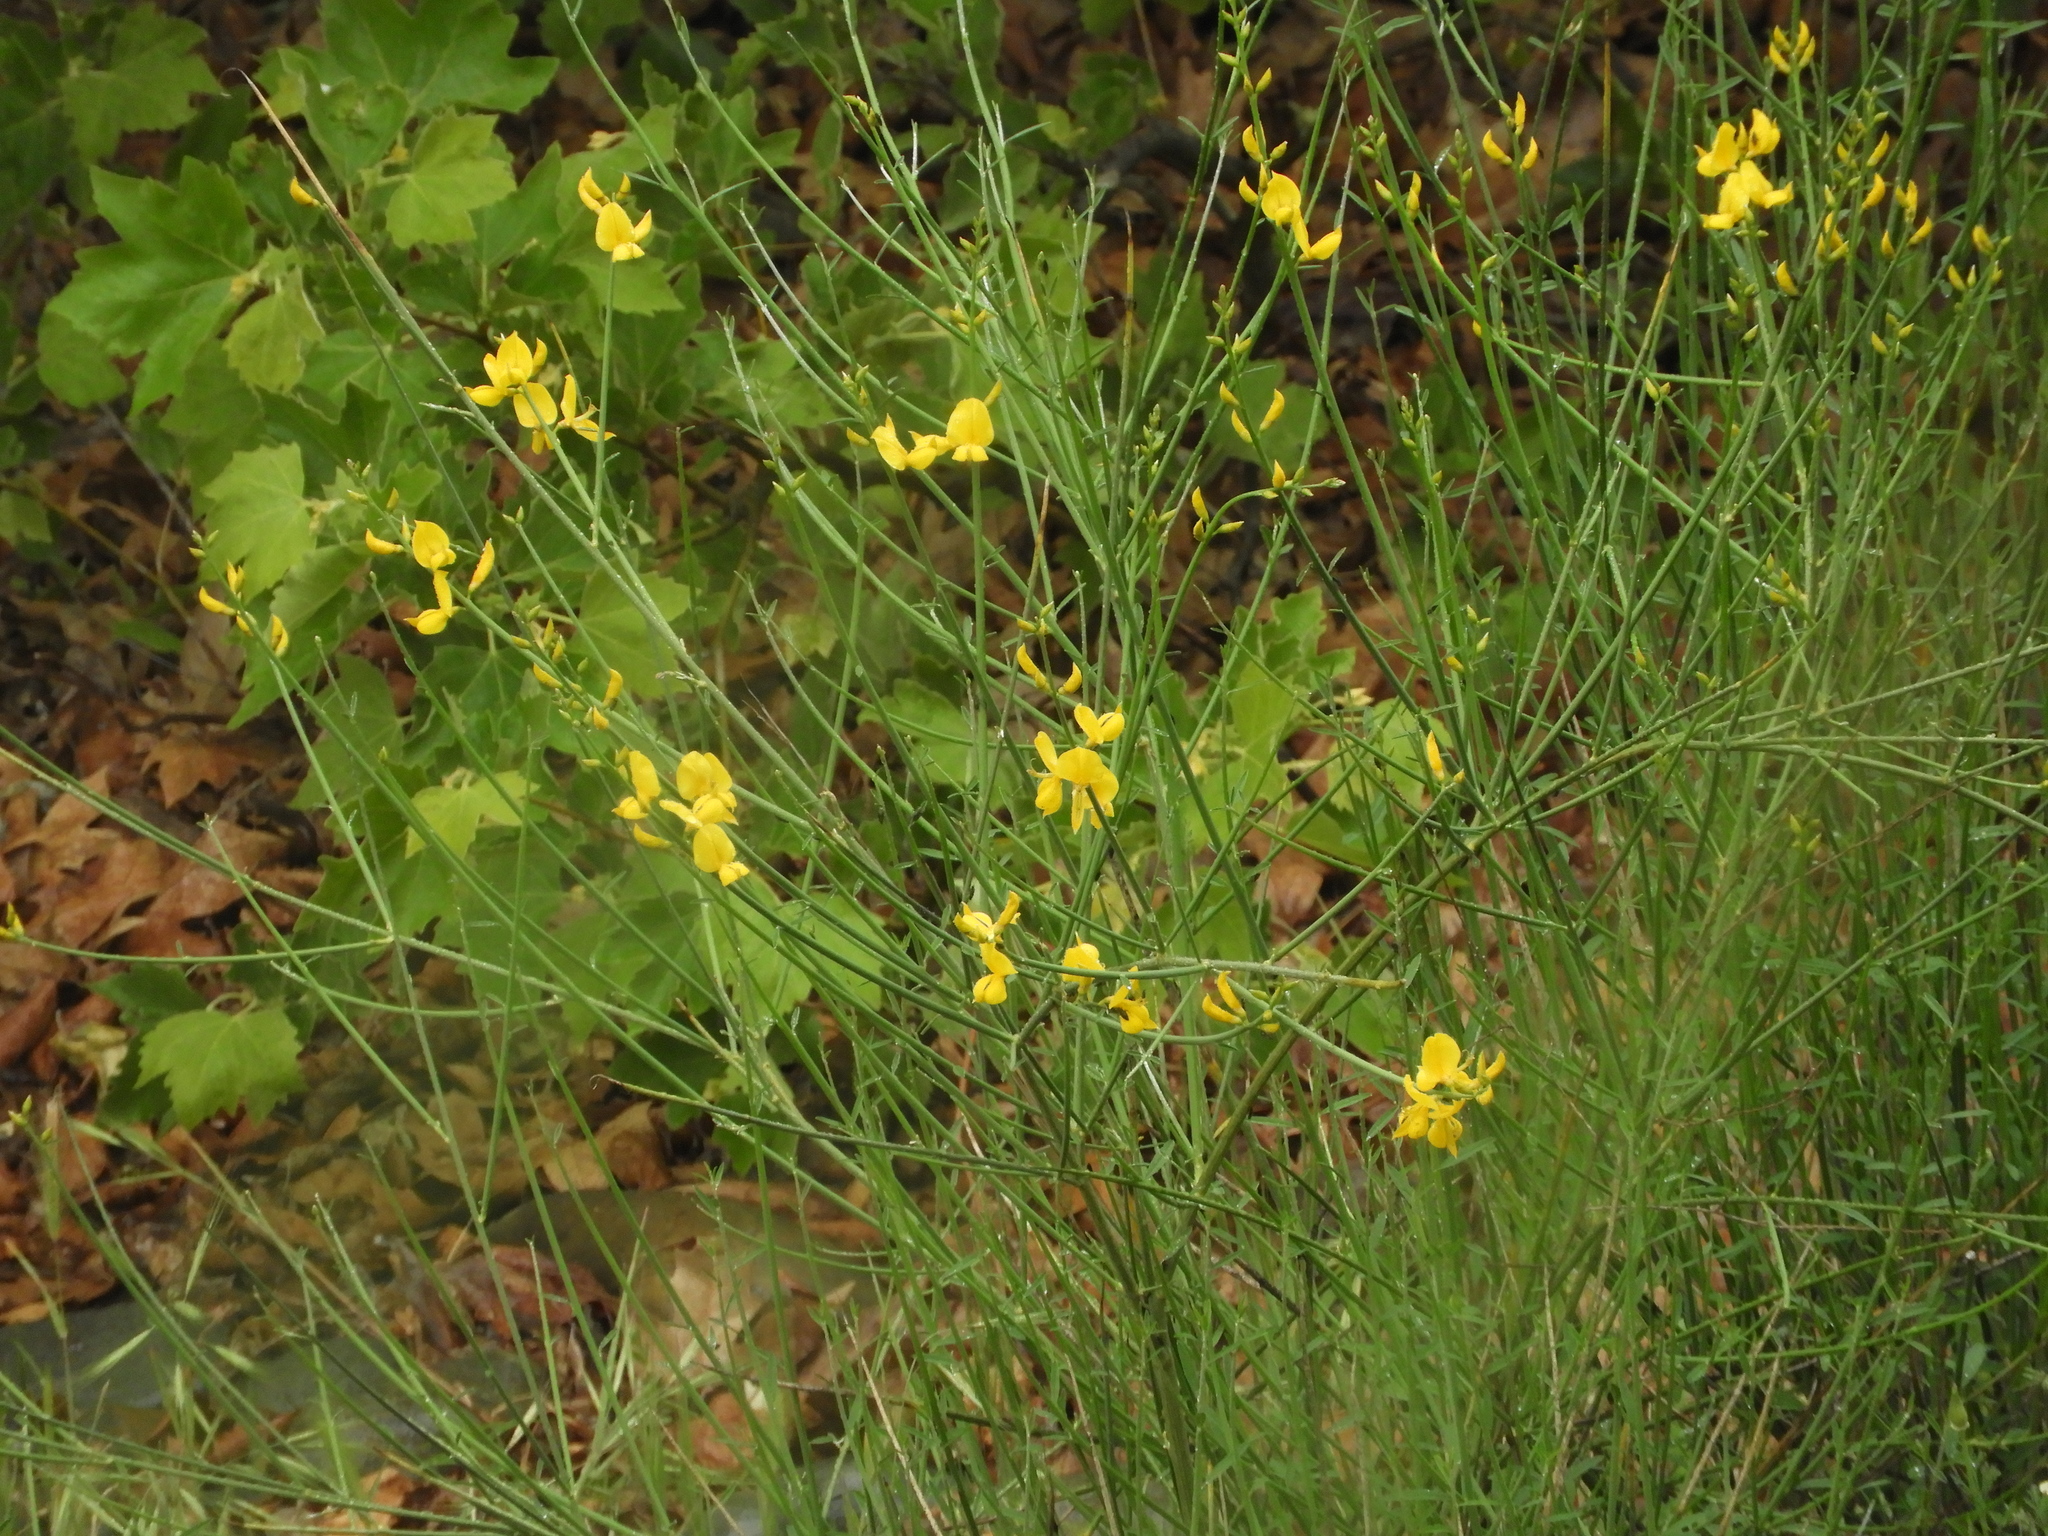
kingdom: Plantae
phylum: Tracheophyta
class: Magnoliopsida
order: Fabales
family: Fabaceae
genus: Cytisus
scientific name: Cytisus scoparius
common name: Scotch broom
